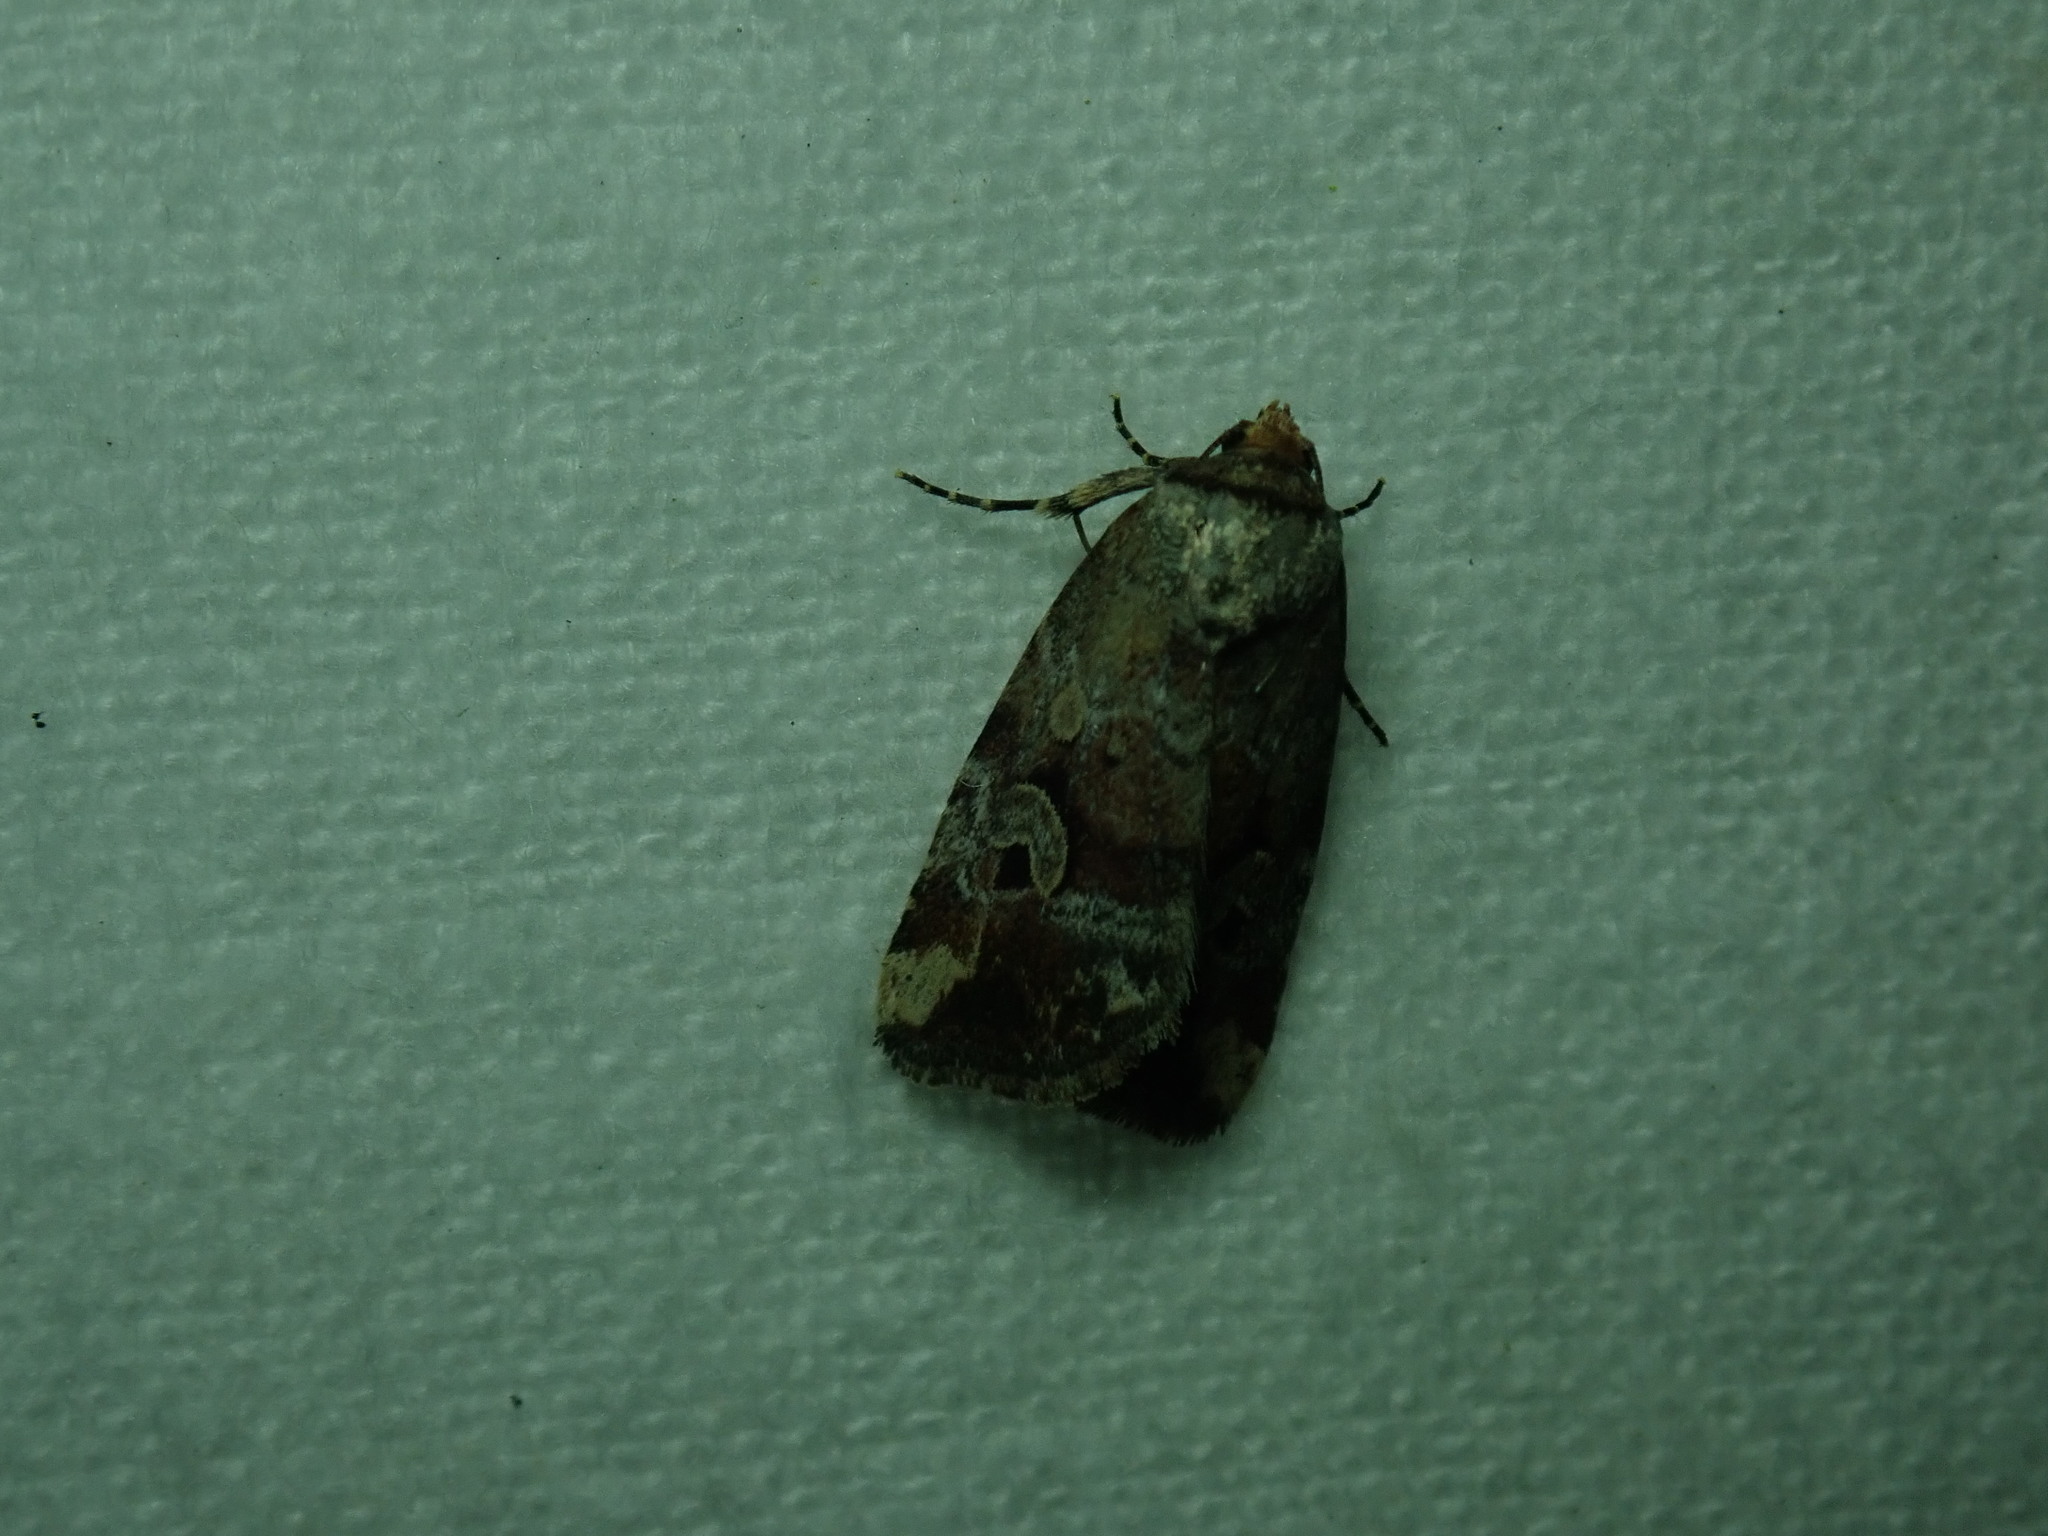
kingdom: Animalia
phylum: Arthropoda
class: Insecta
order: Lepidoptera
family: Noctuidae
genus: Elaphria
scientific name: Elaphria alapallida
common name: Pale-winged midget
